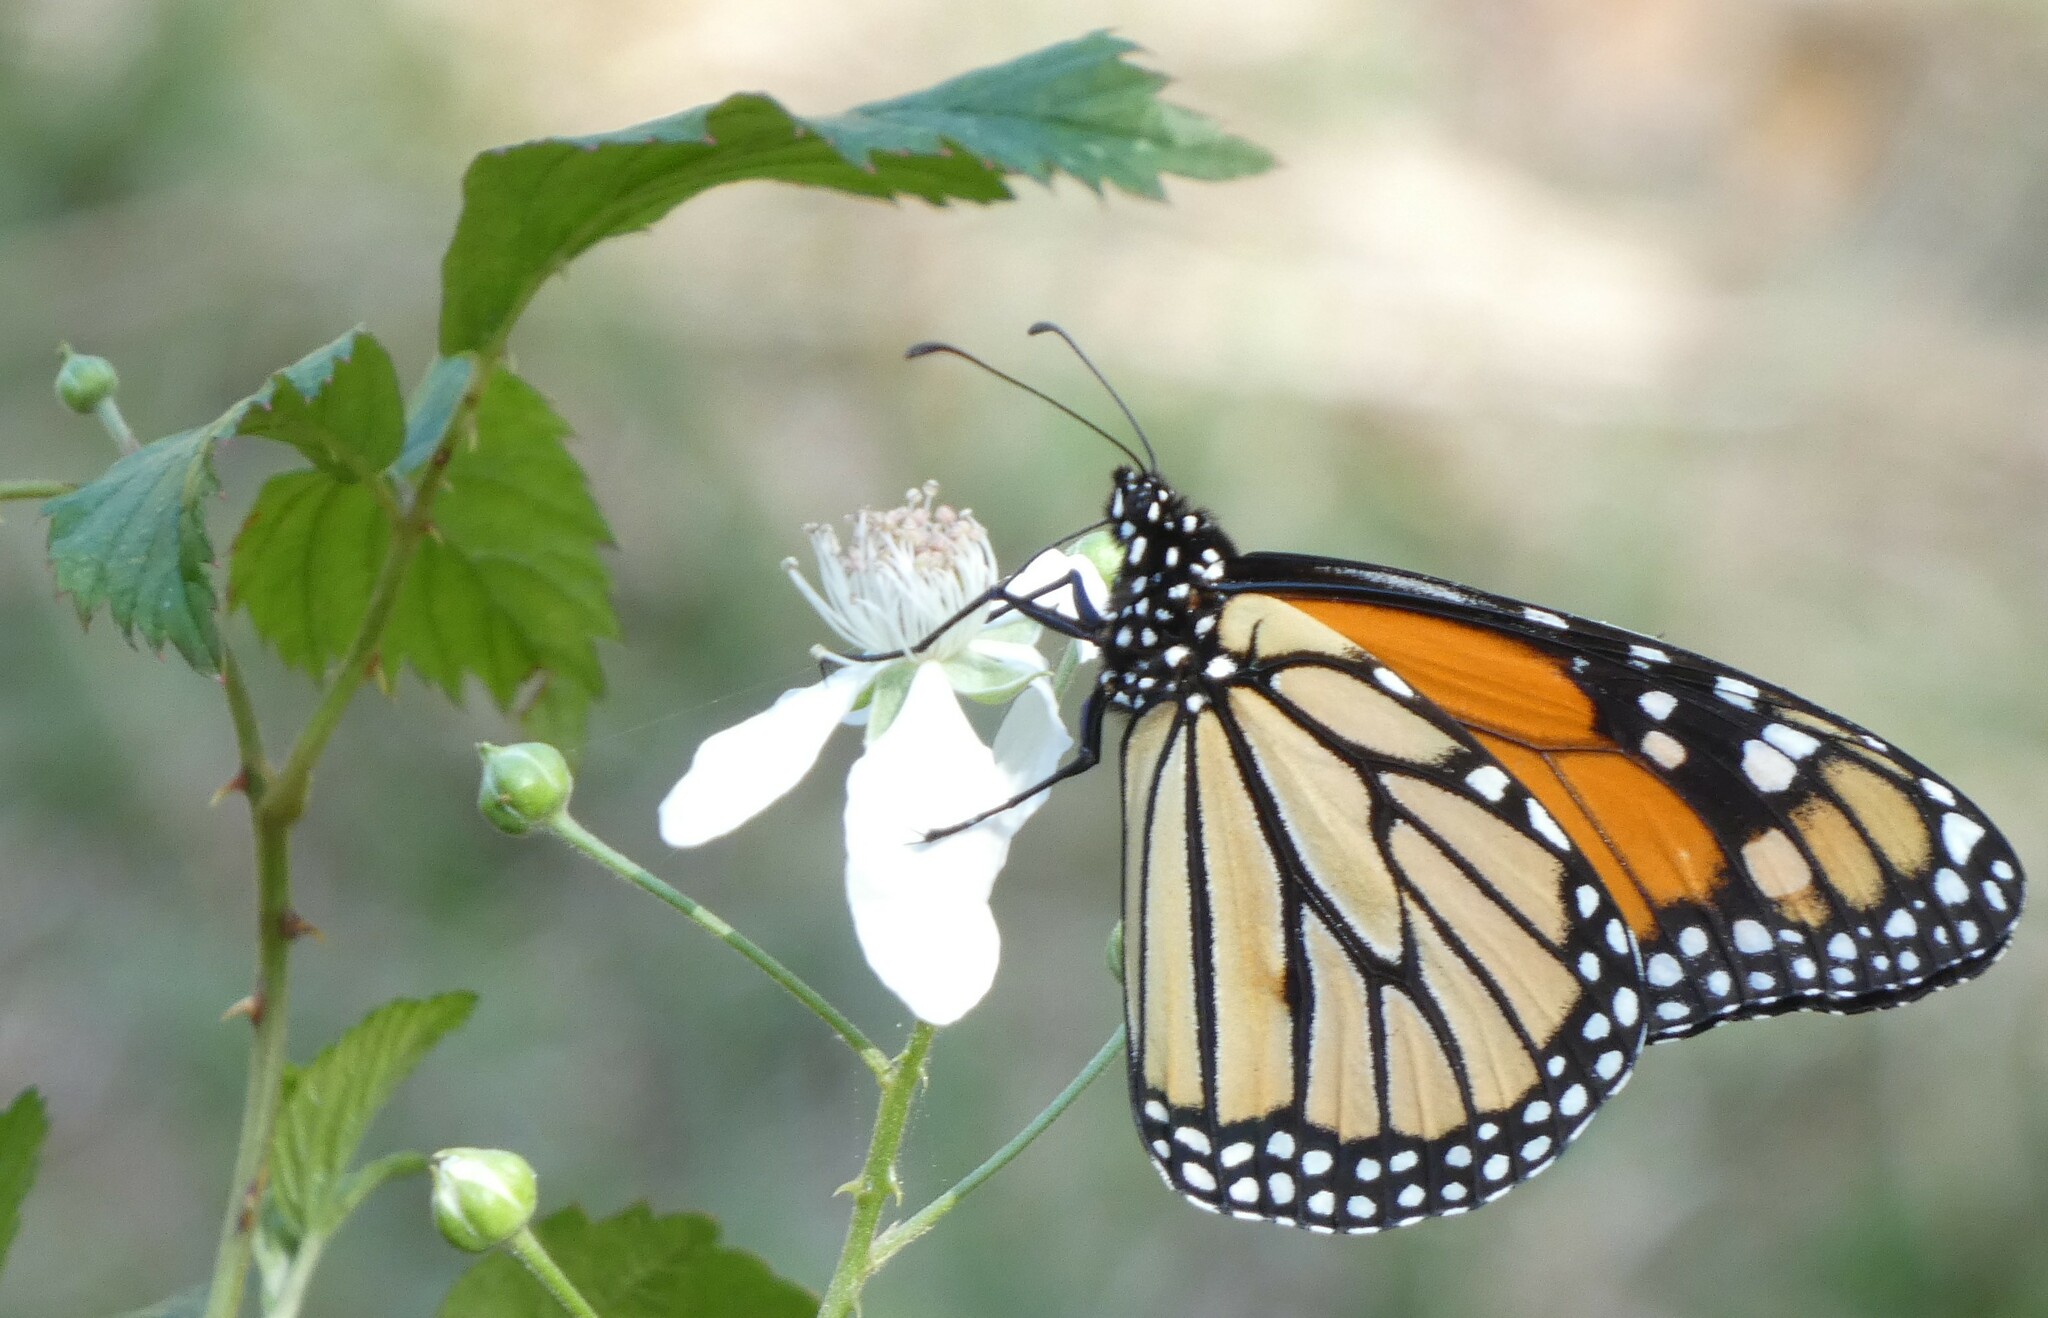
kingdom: Animalia
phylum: Arthropoda
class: Insecta
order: Lepidoptera
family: Nymphalidae
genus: Danaus
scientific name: Danaus plexippus
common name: Monarch
